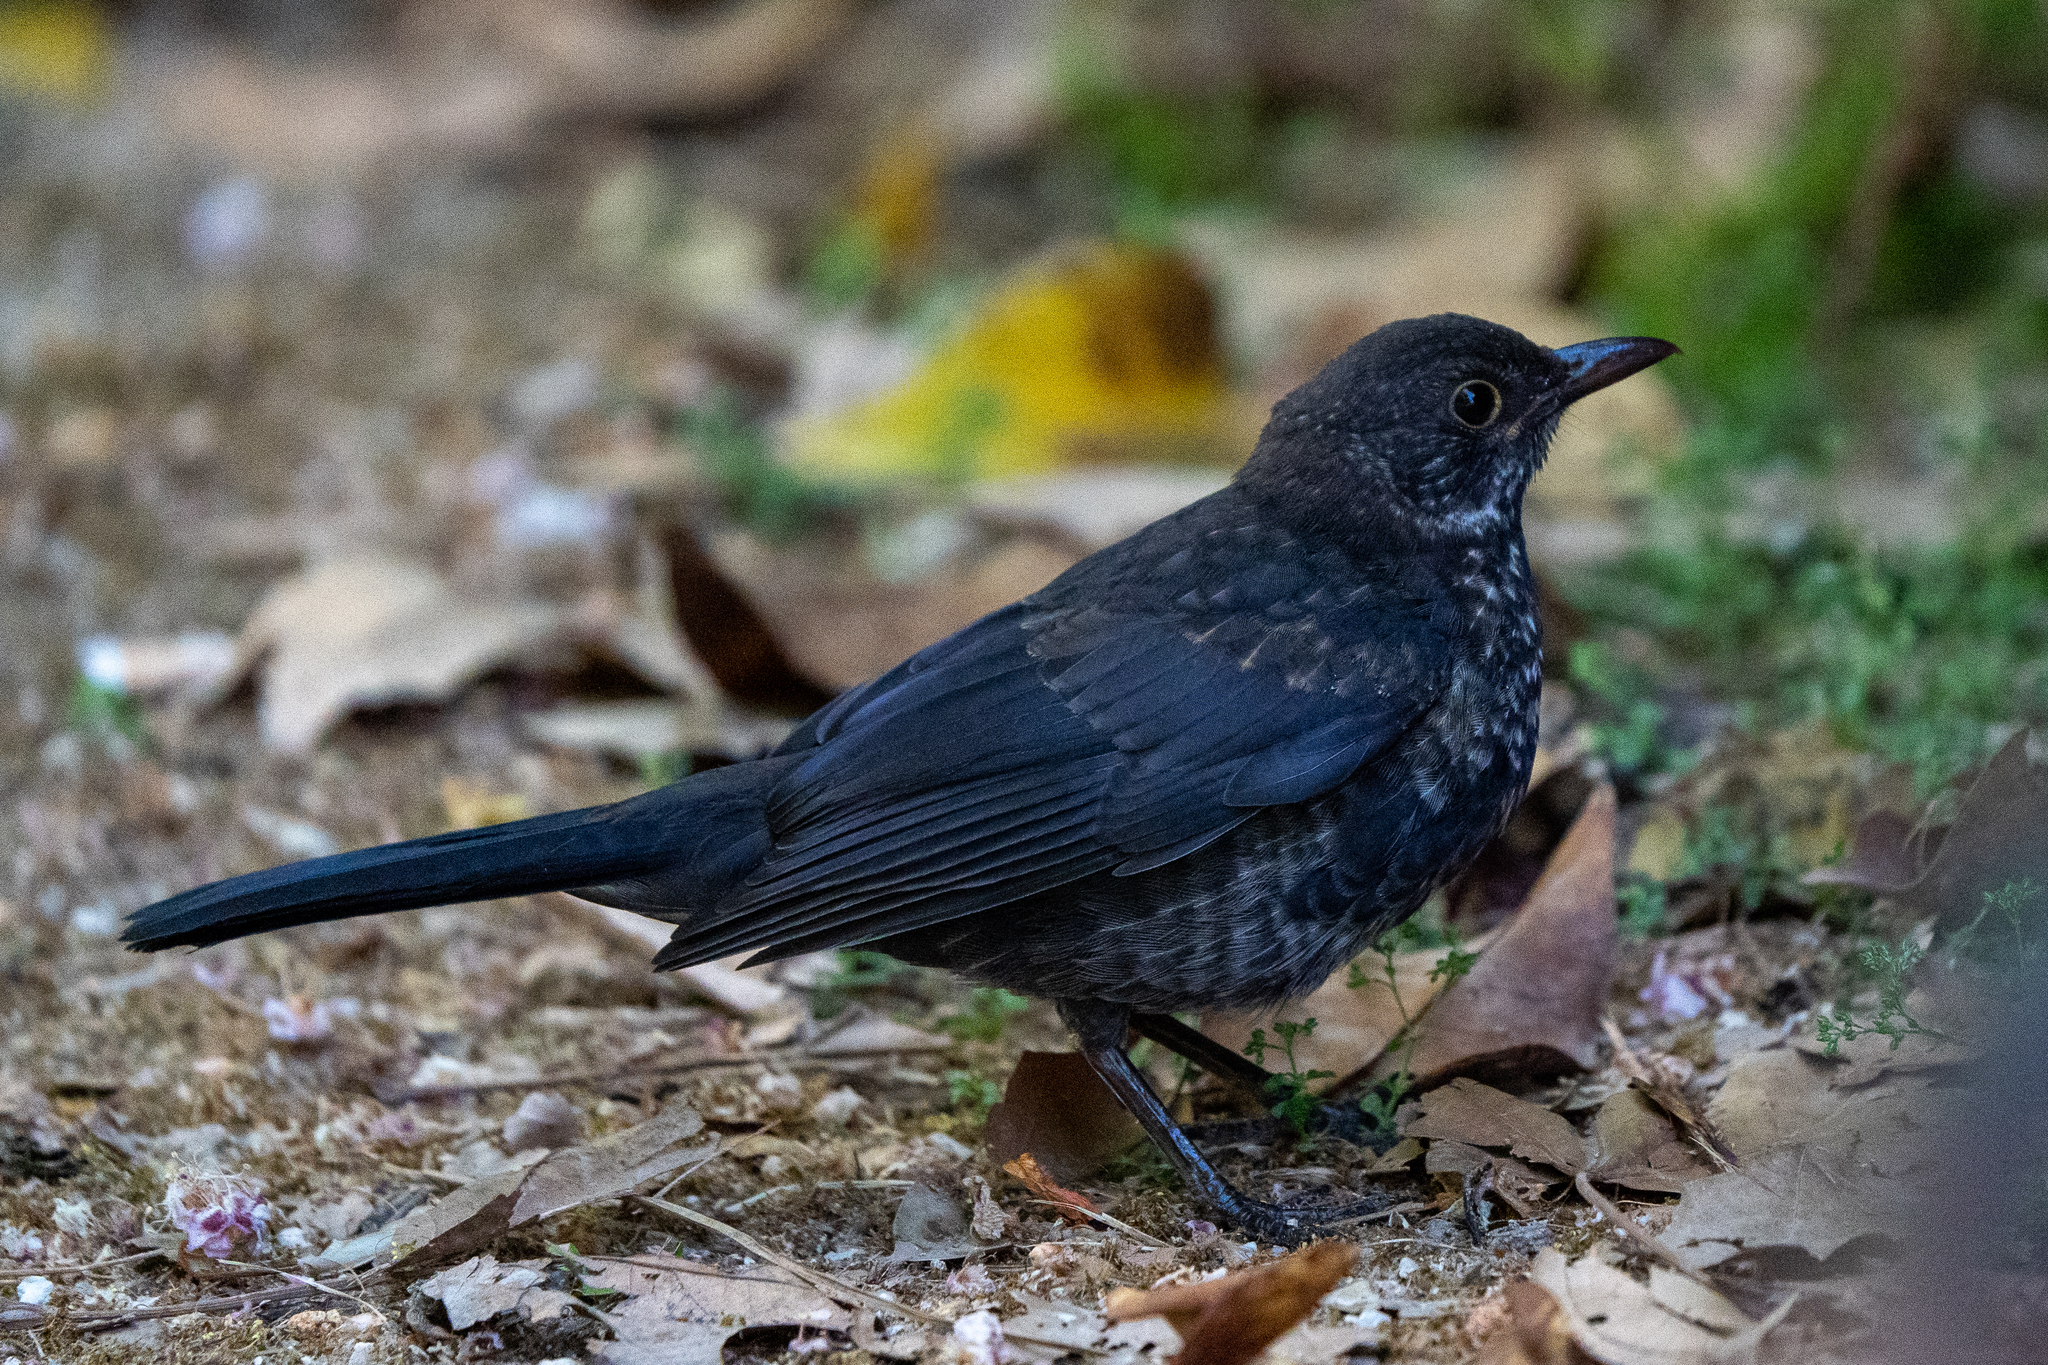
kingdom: Animalia
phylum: Chordata
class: Aves
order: Passeriformes
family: Turdidae
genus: Turdus
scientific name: Turdus merula
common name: Common blackbird
